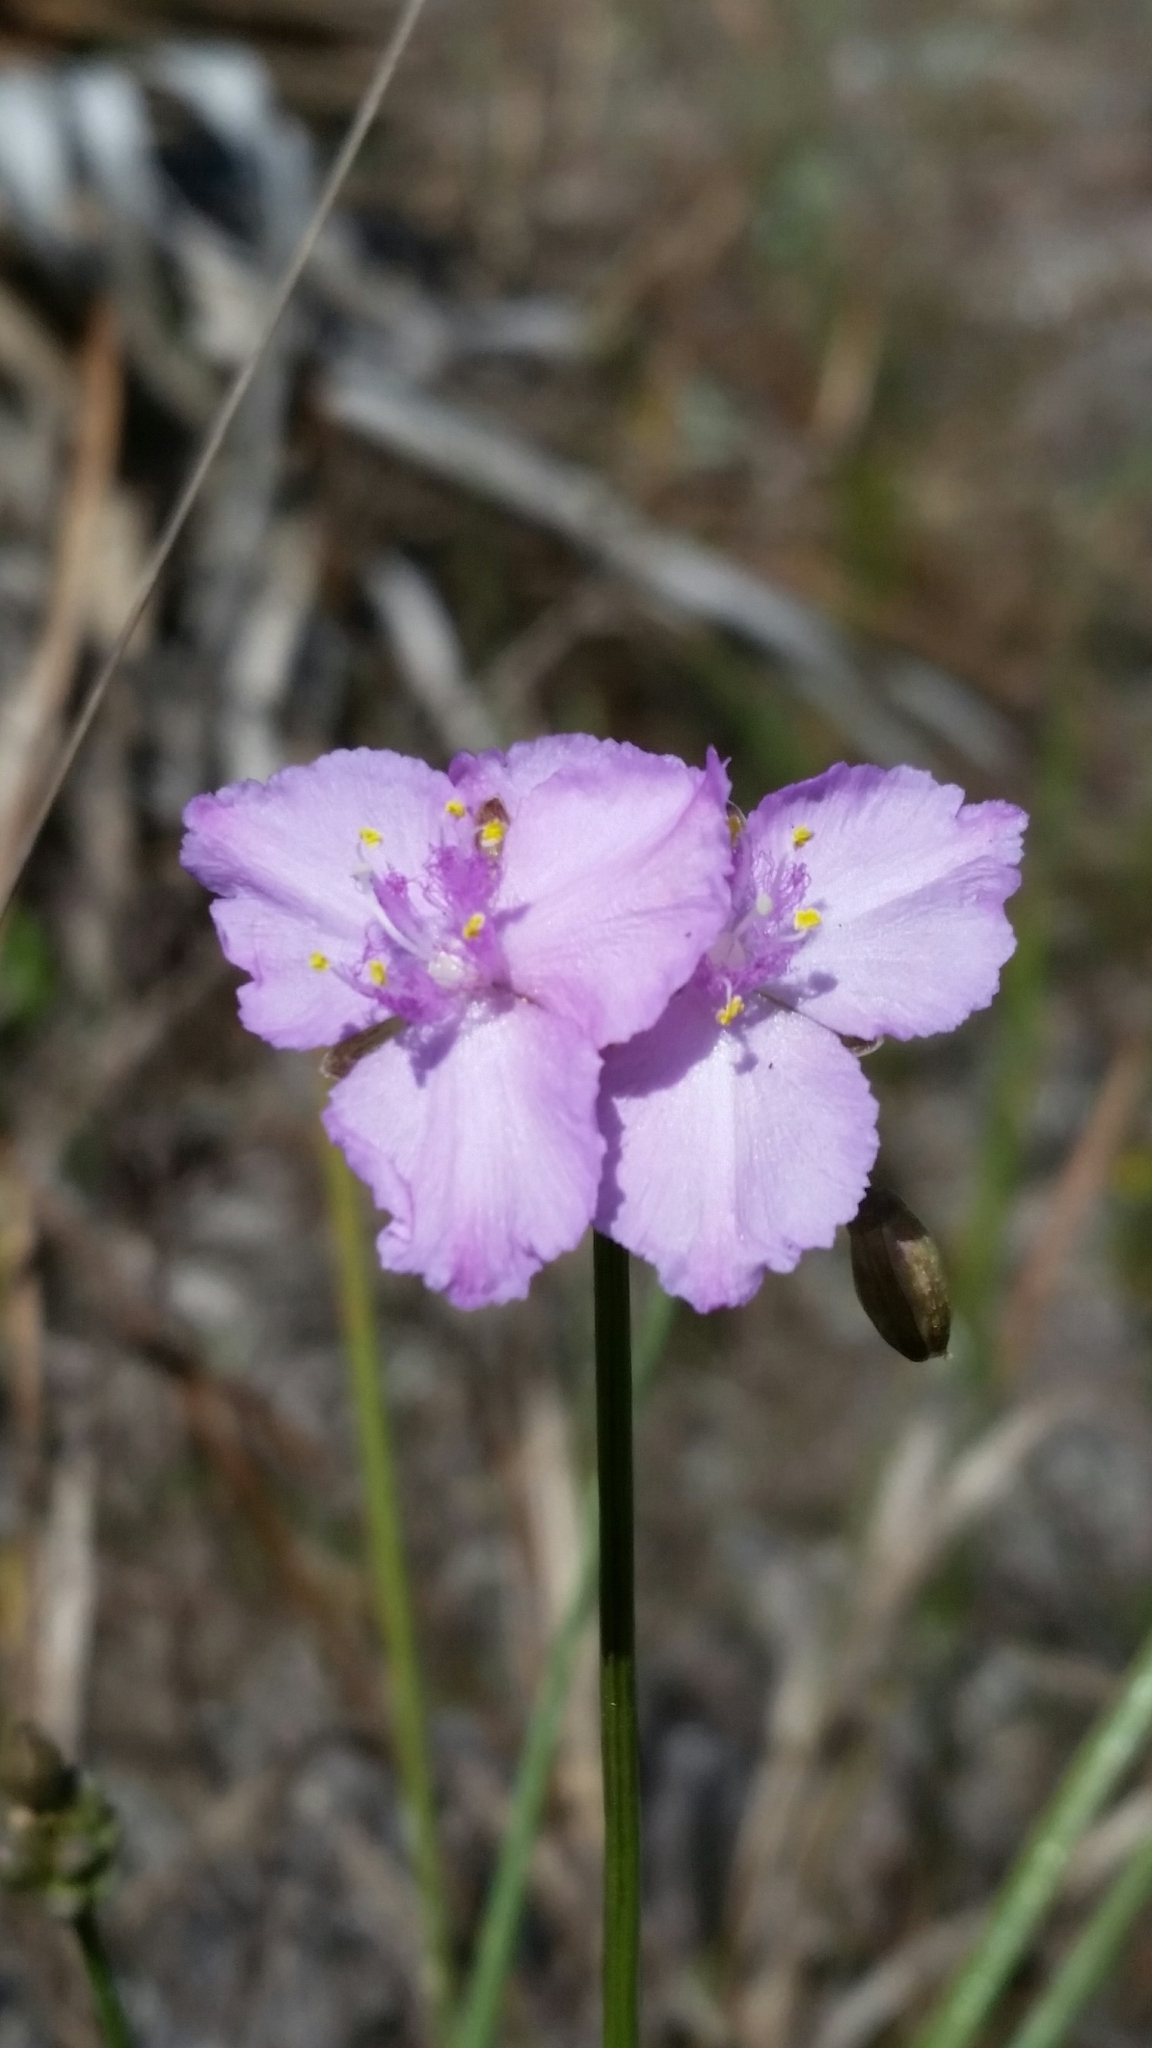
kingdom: Plantae
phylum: Tracheophyta
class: Liliopsida
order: Commelinales
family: Commelinaceae
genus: Callisia
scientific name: Callisia ornata
